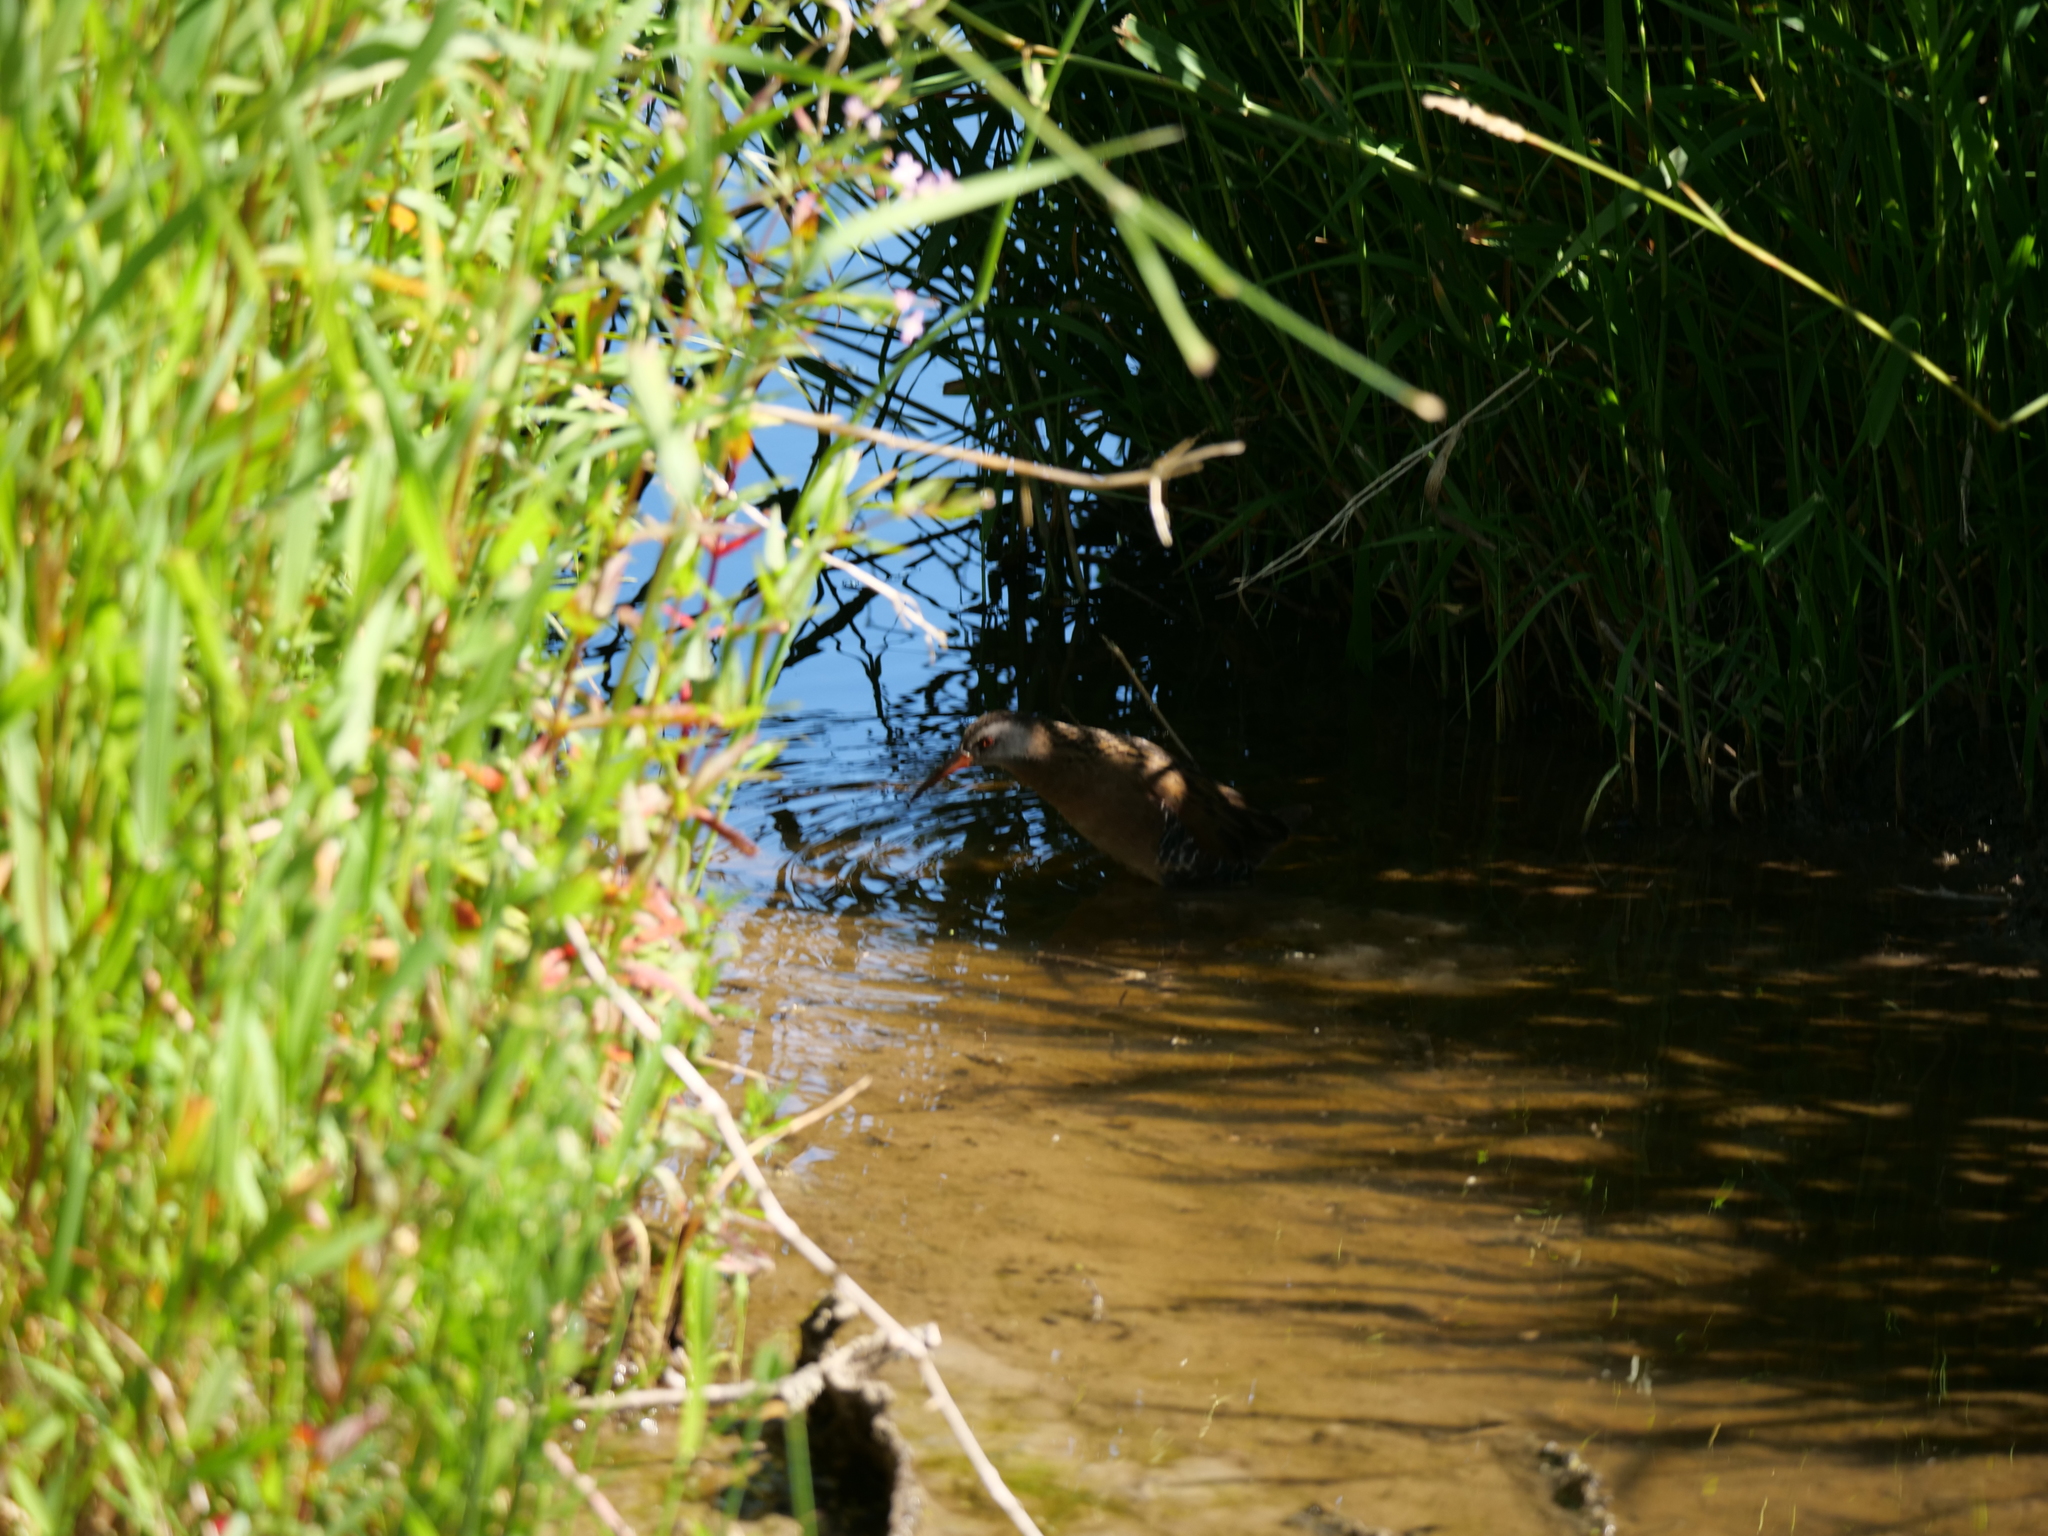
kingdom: Animalia
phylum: Chordata
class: Aves
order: Gruiformes
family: Rallidae
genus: Rallus
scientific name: Rallus limicola
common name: Virginia rail
